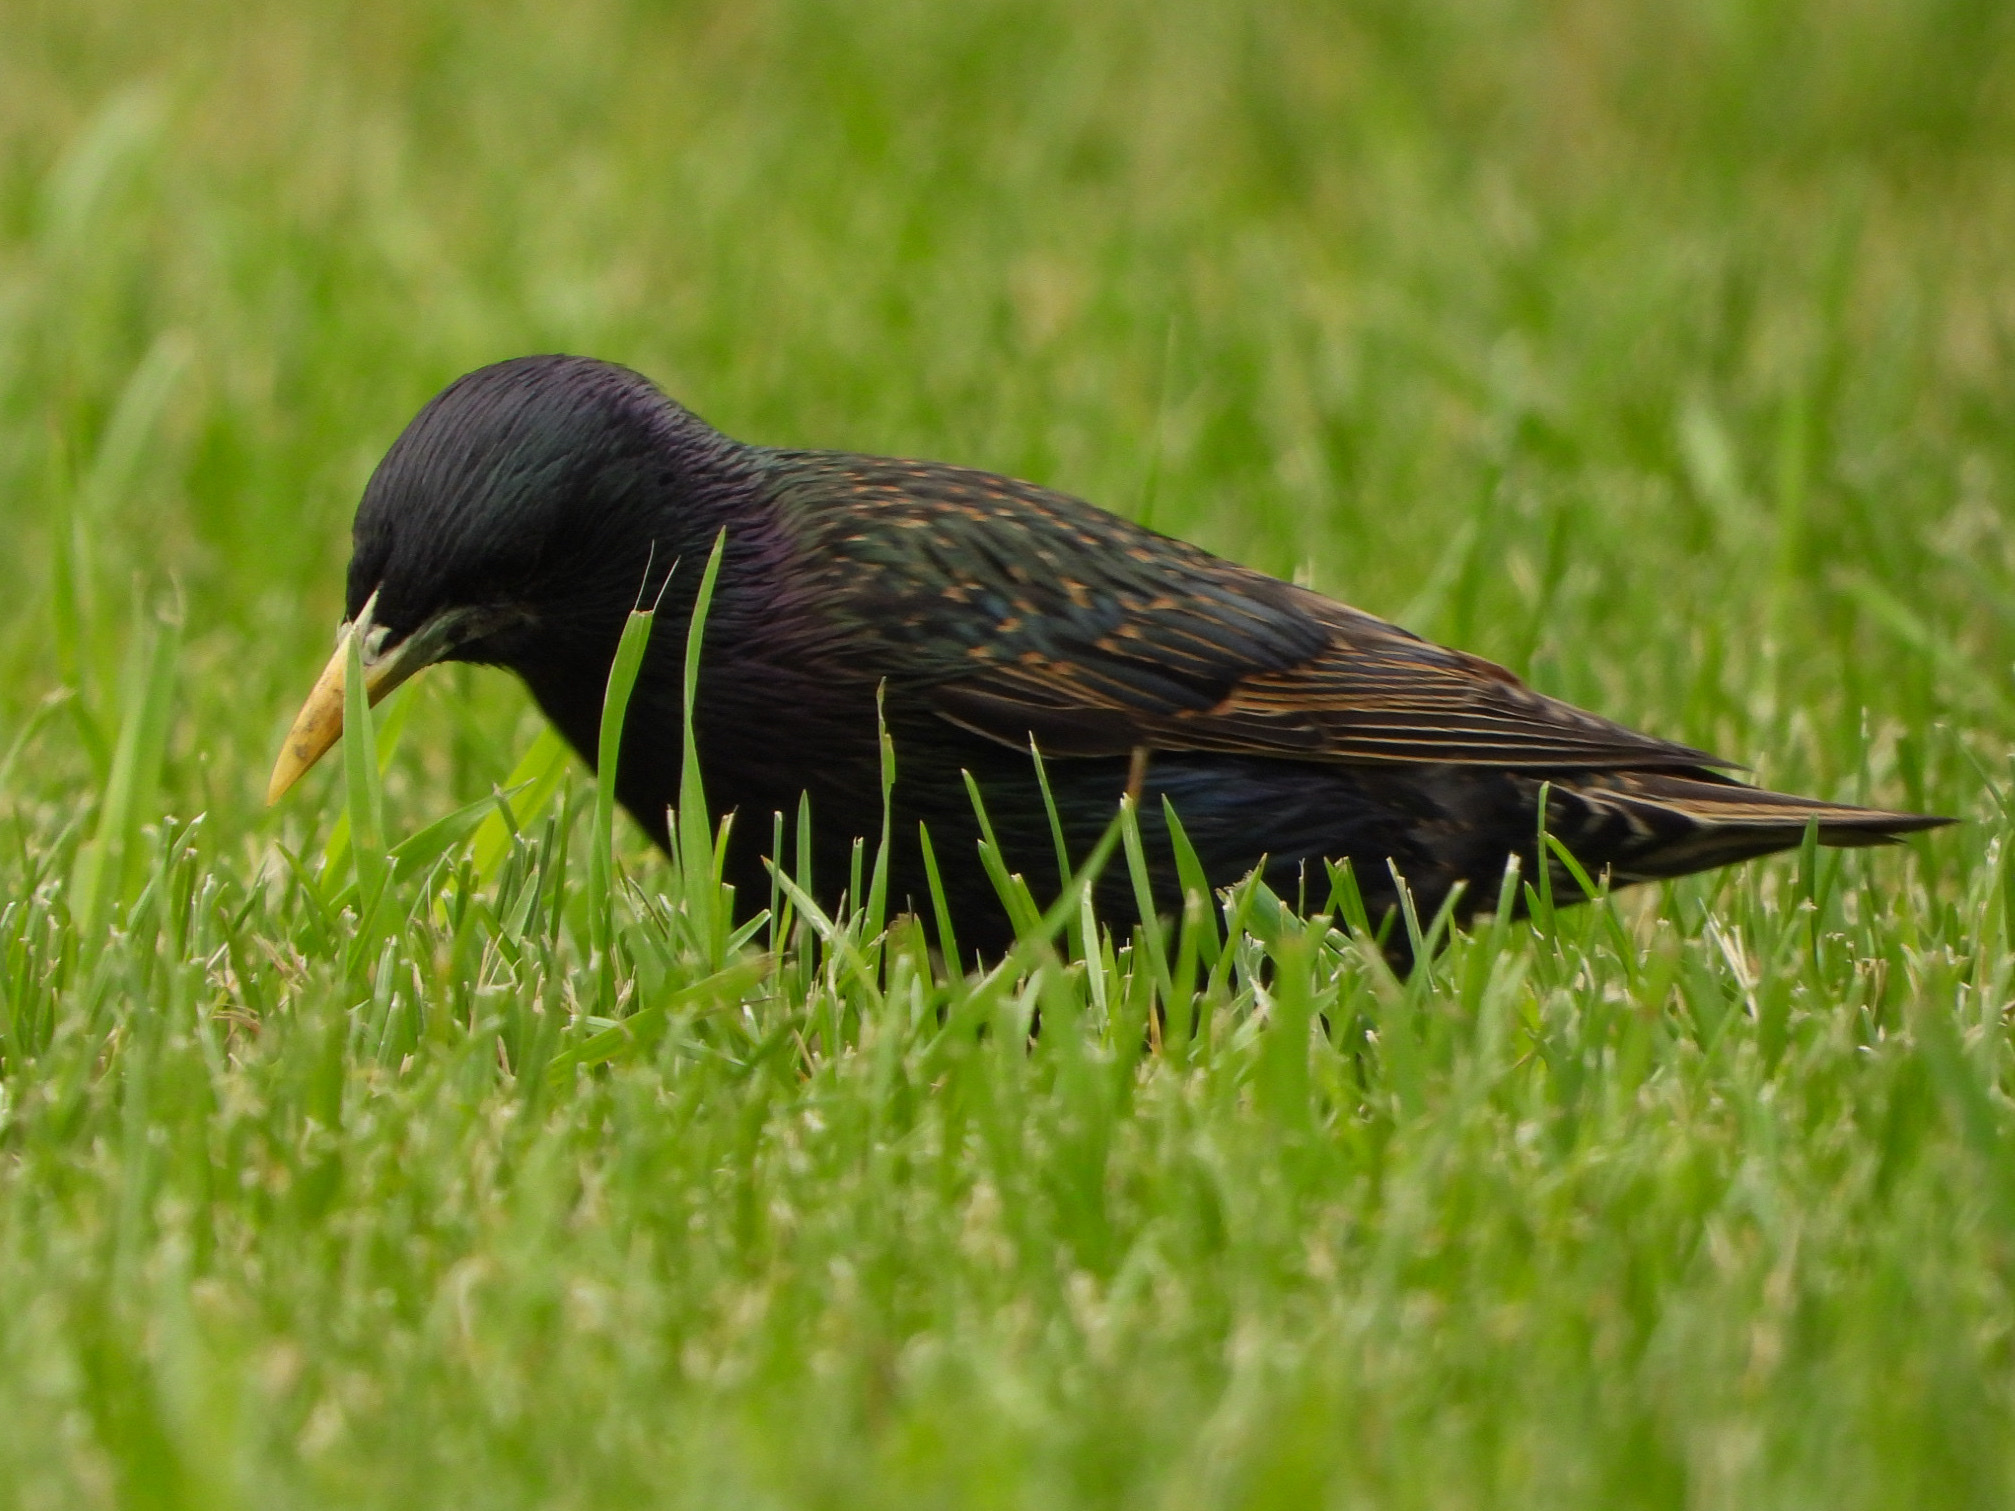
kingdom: Animalia
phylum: Chordata
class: Aves
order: Passeriformes
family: Sturnidae
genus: Sturnus
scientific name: Sturnus vulgaris
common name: Common starling
